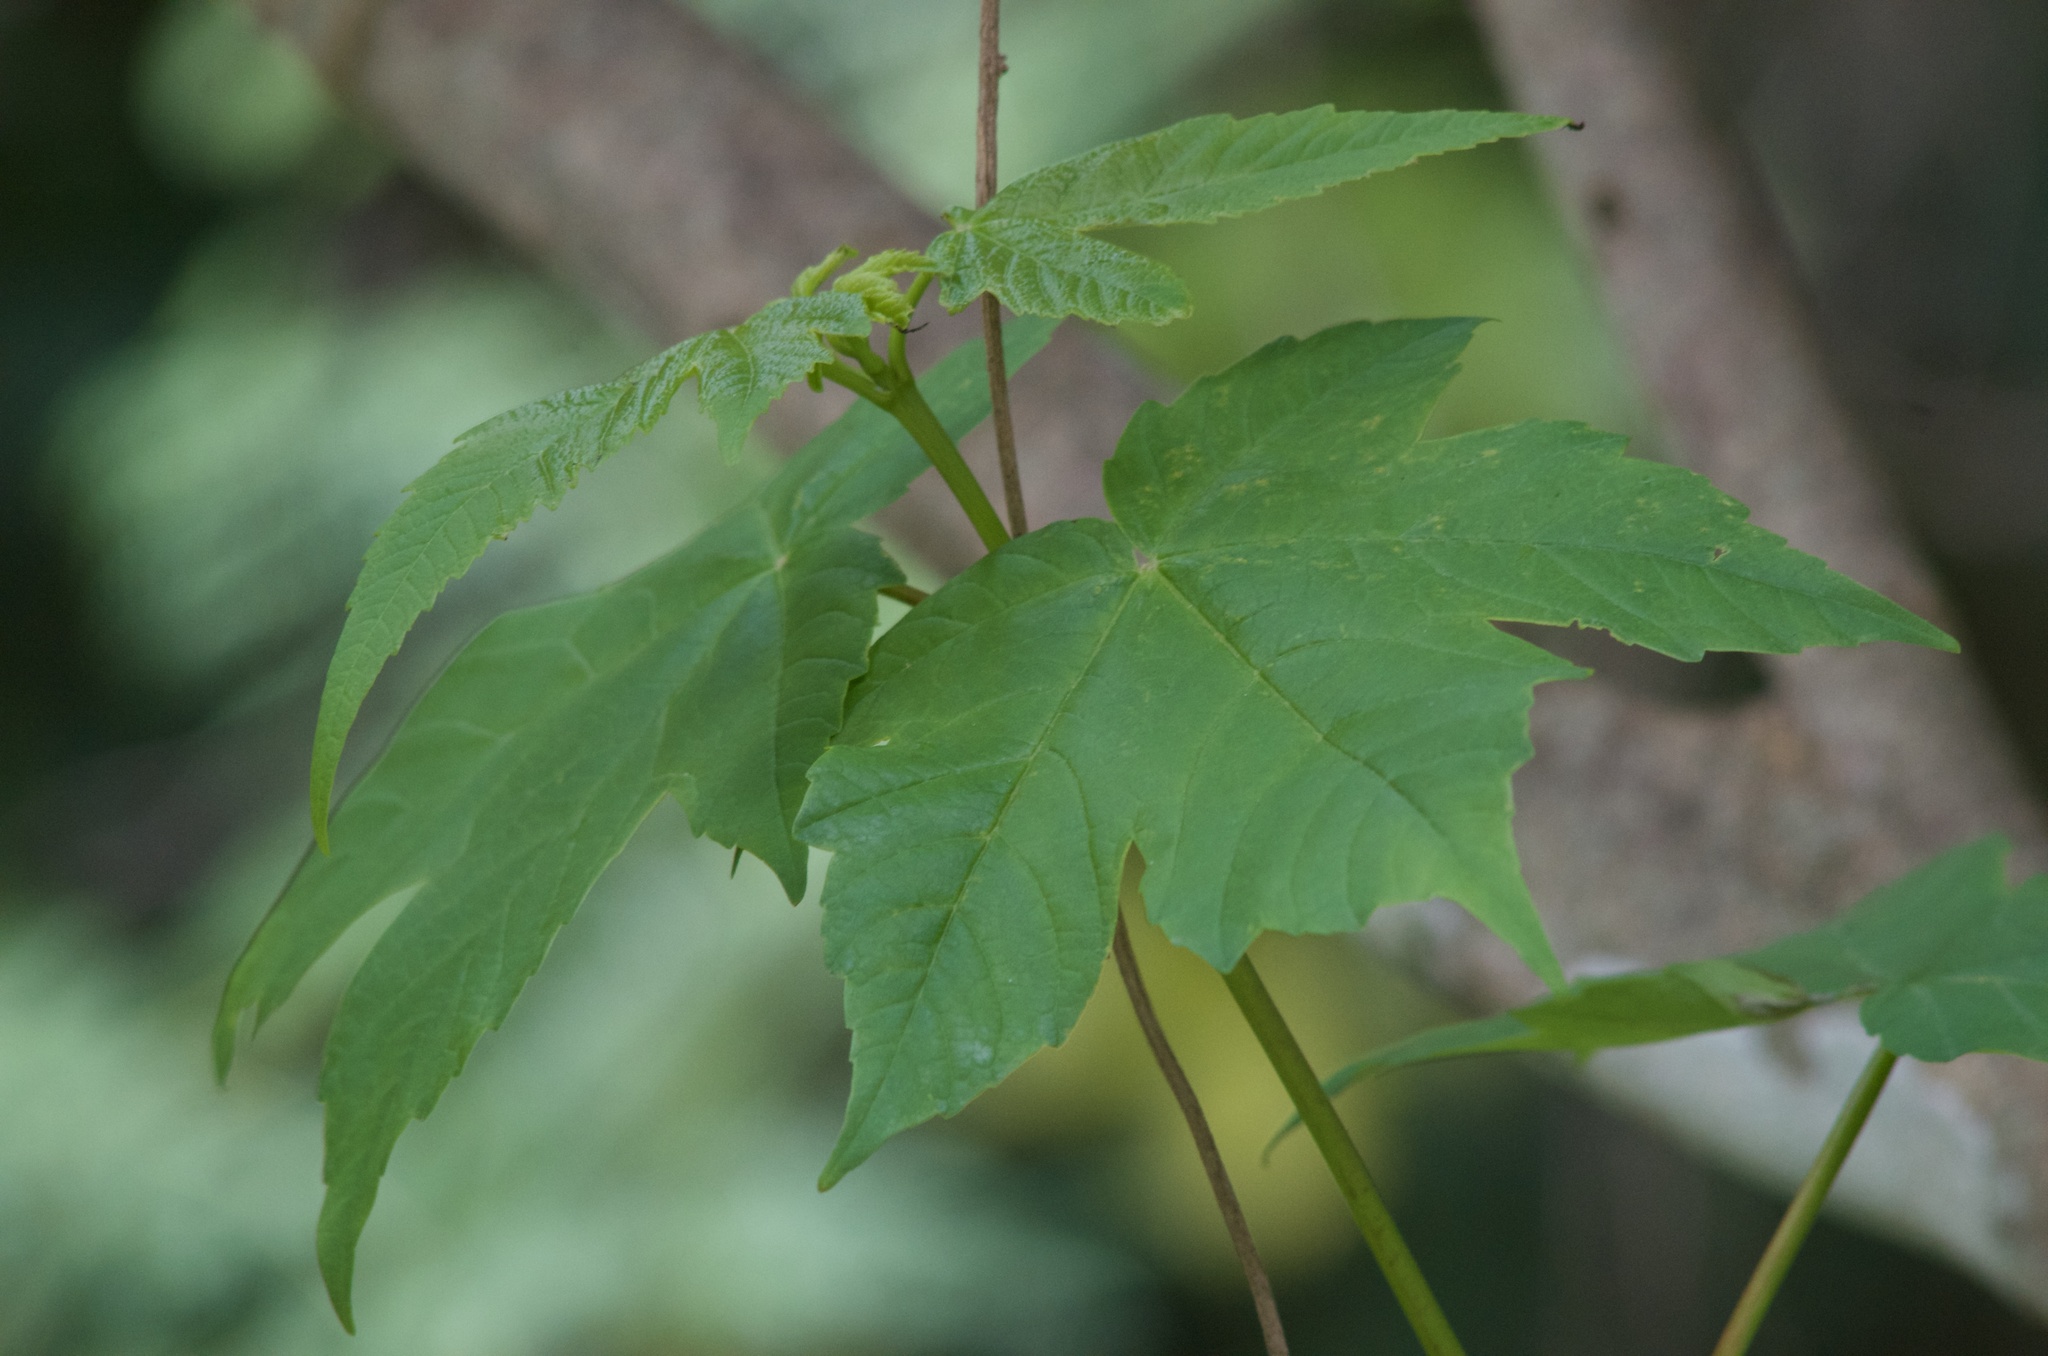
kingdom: Plantae
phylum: Tracheophyta
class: Magnoliopsida
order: Sapindales
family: Sapindaceae
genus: Acer
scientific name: Acer pseudoplatanus
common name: Sycamore
